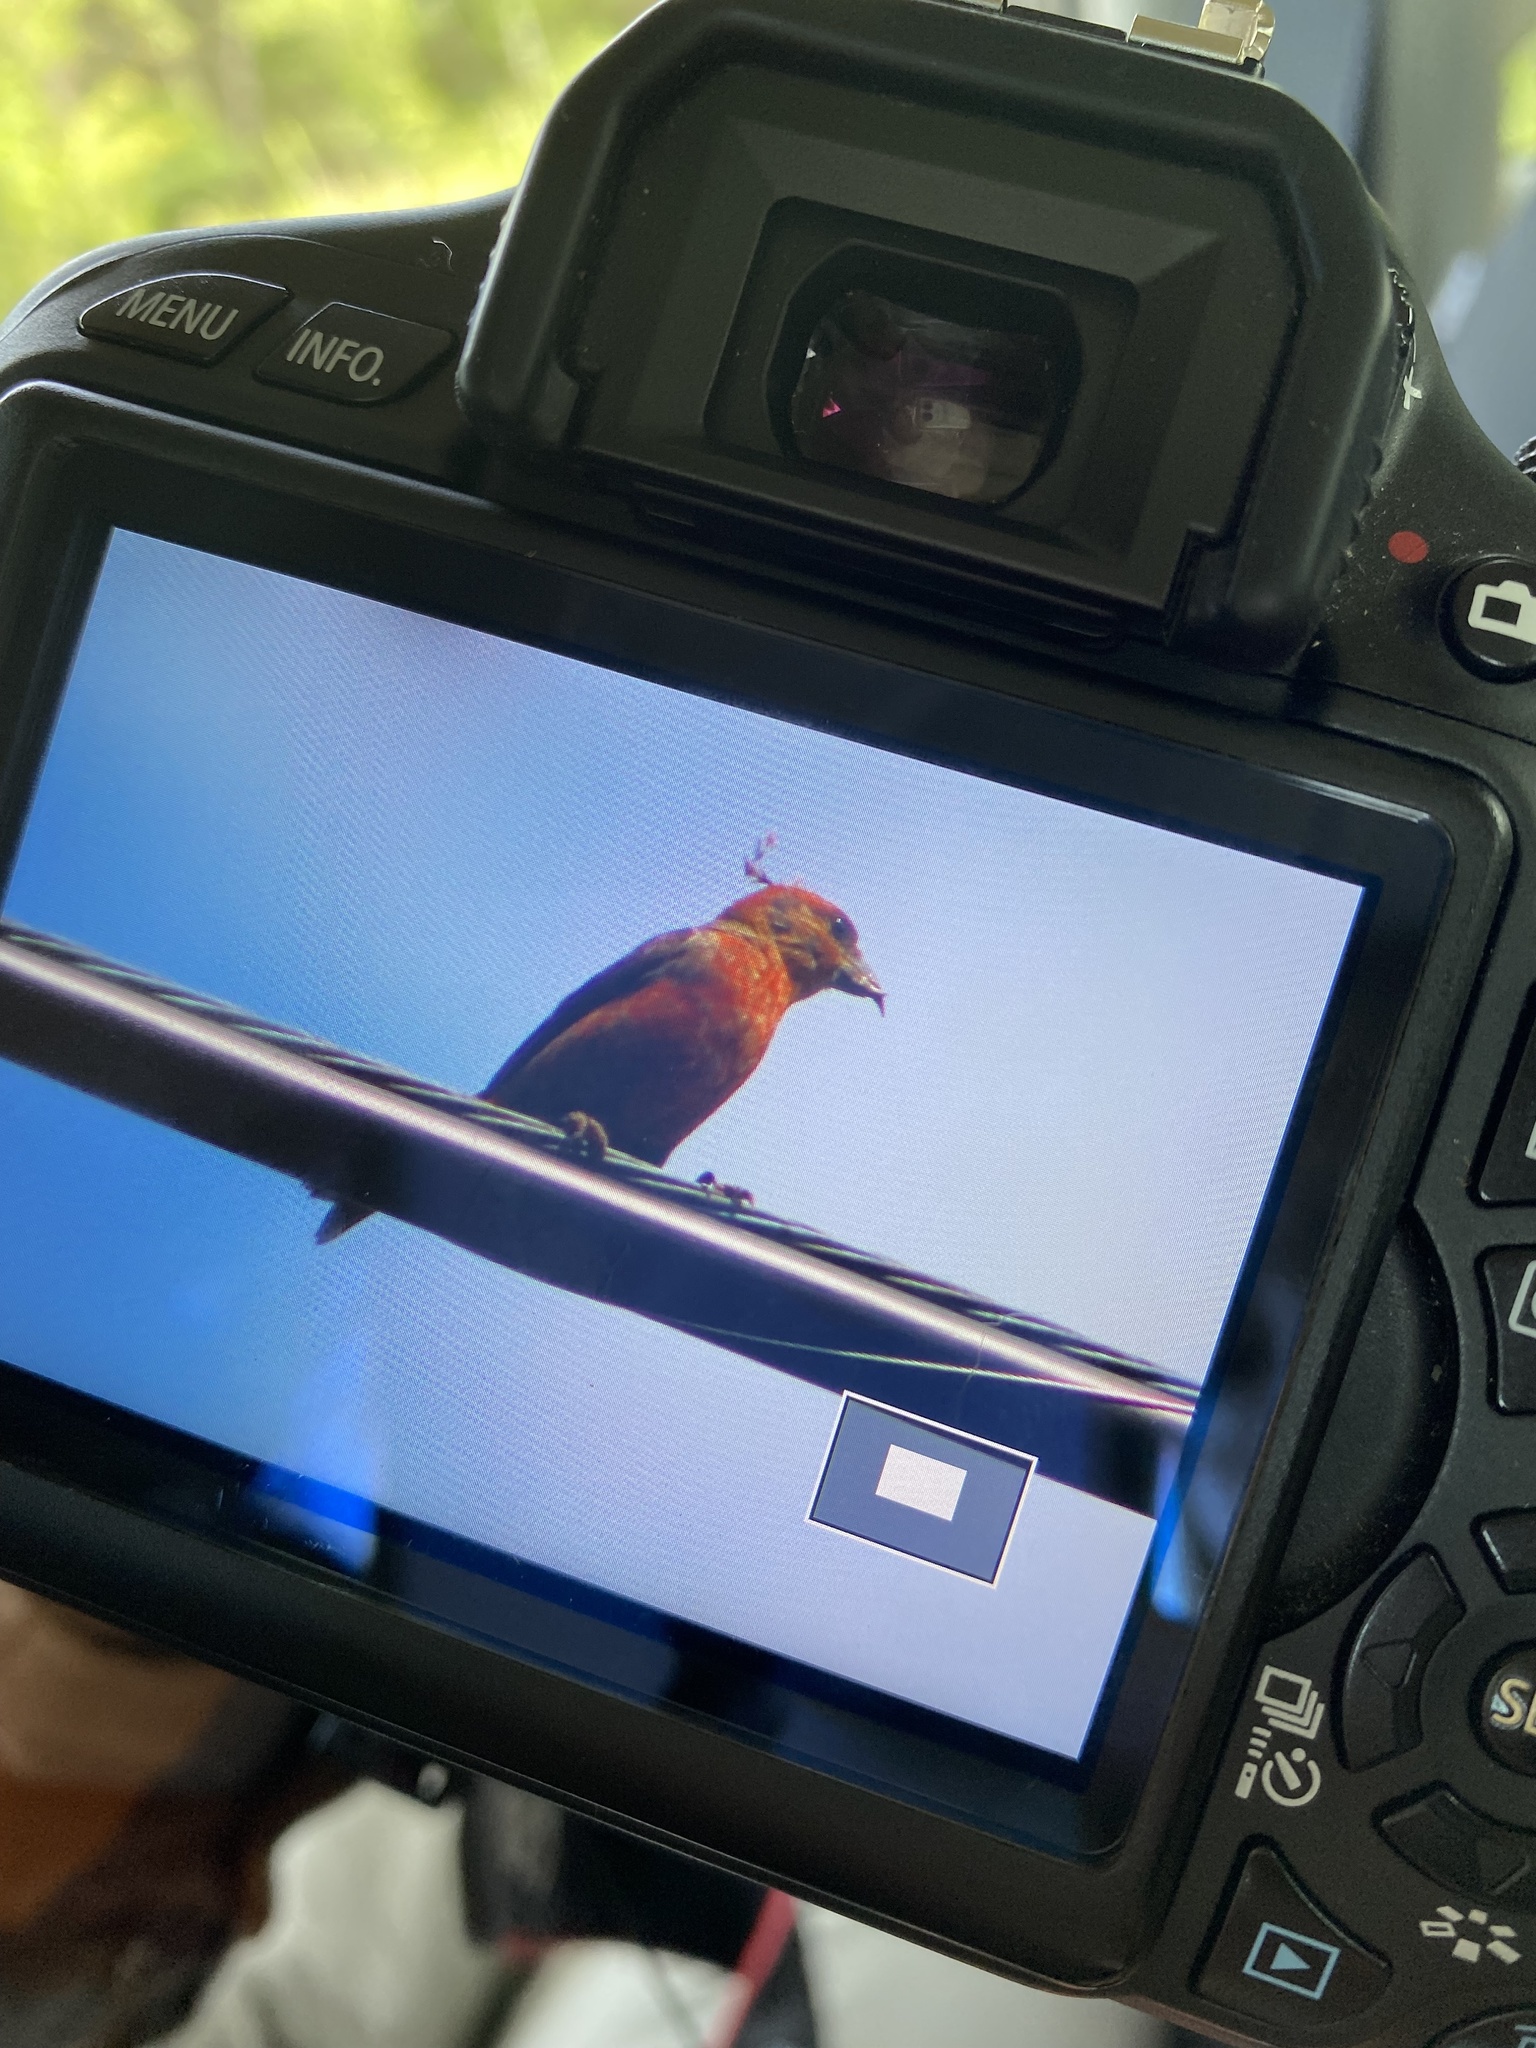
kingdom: Animalia
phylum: Chordata
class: Aves
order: Passeriformes
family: Fringillidae
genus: Loxia
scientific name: Loxia curvirostra
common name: Red crossbill
